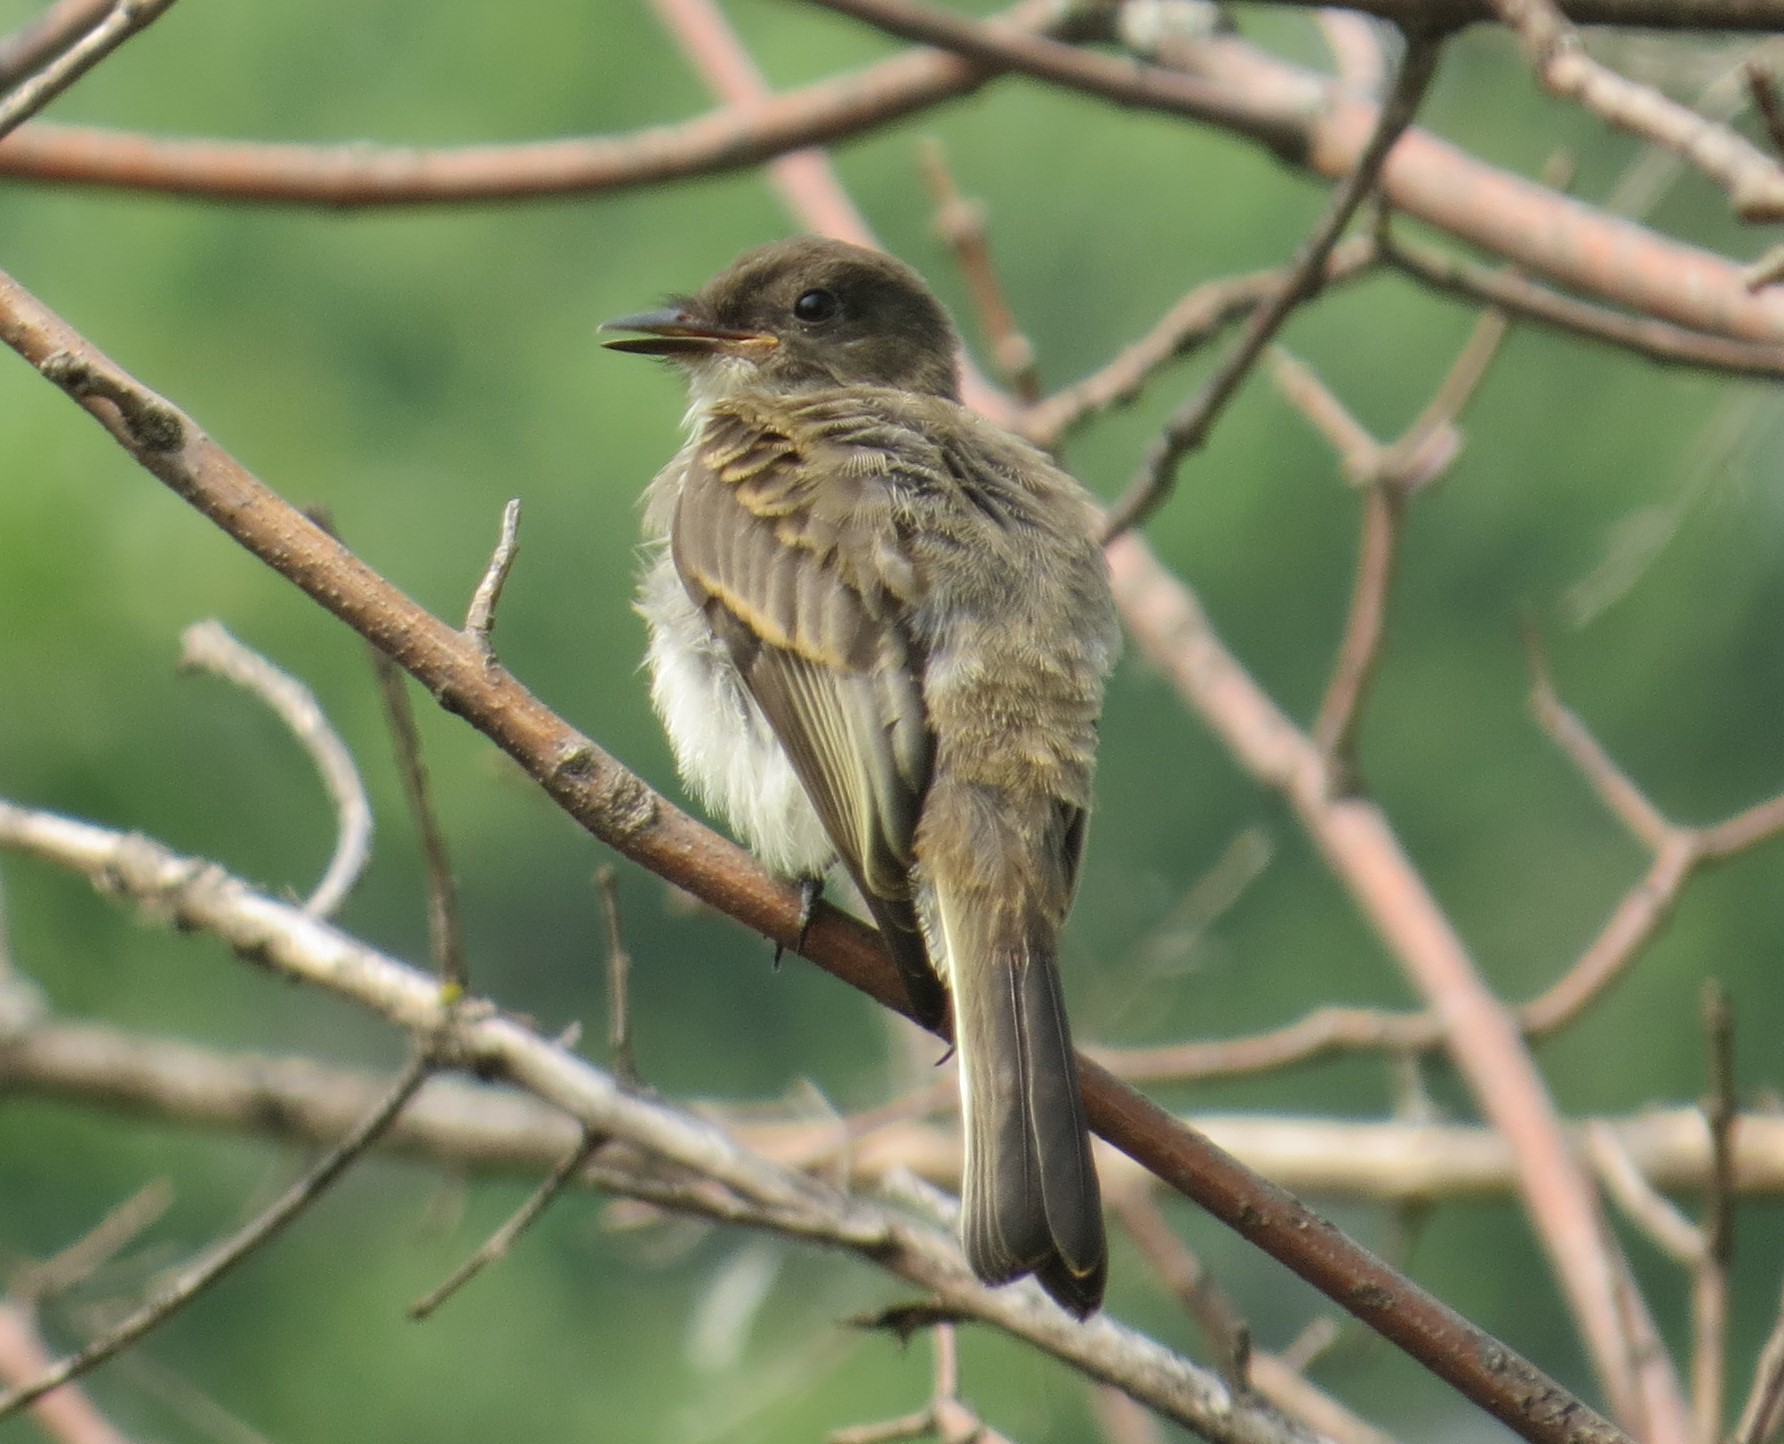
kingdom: Animalia
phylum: Chordata
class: Aves
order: Passeriformes
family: Tyrannidae
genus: Sayornis
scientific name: Sayornis phoebe
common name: Eastern phoebe
